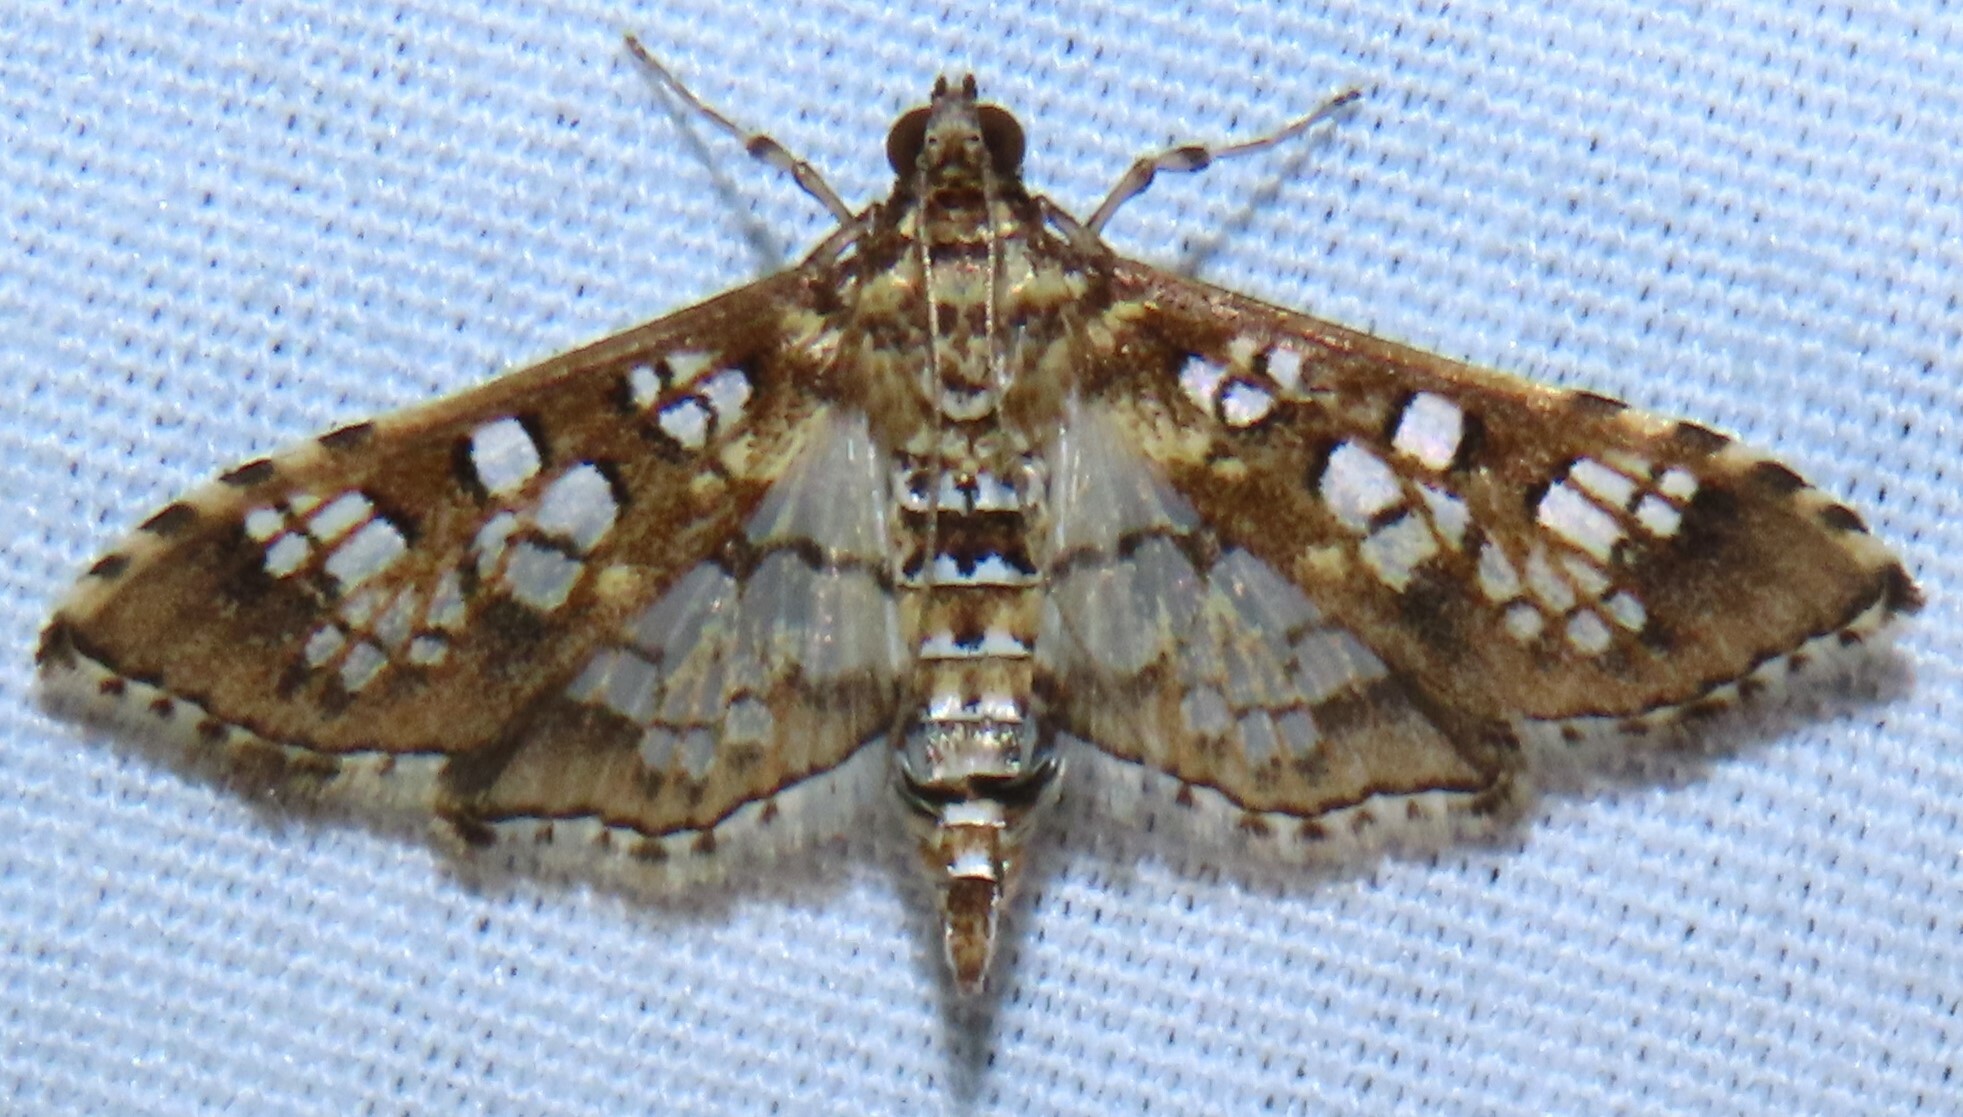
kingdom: Animalia
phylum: Arthropoda
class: Insecta
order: Lepidoptera
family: Crambidae
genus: Samea
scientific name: Samea ecclesialis
